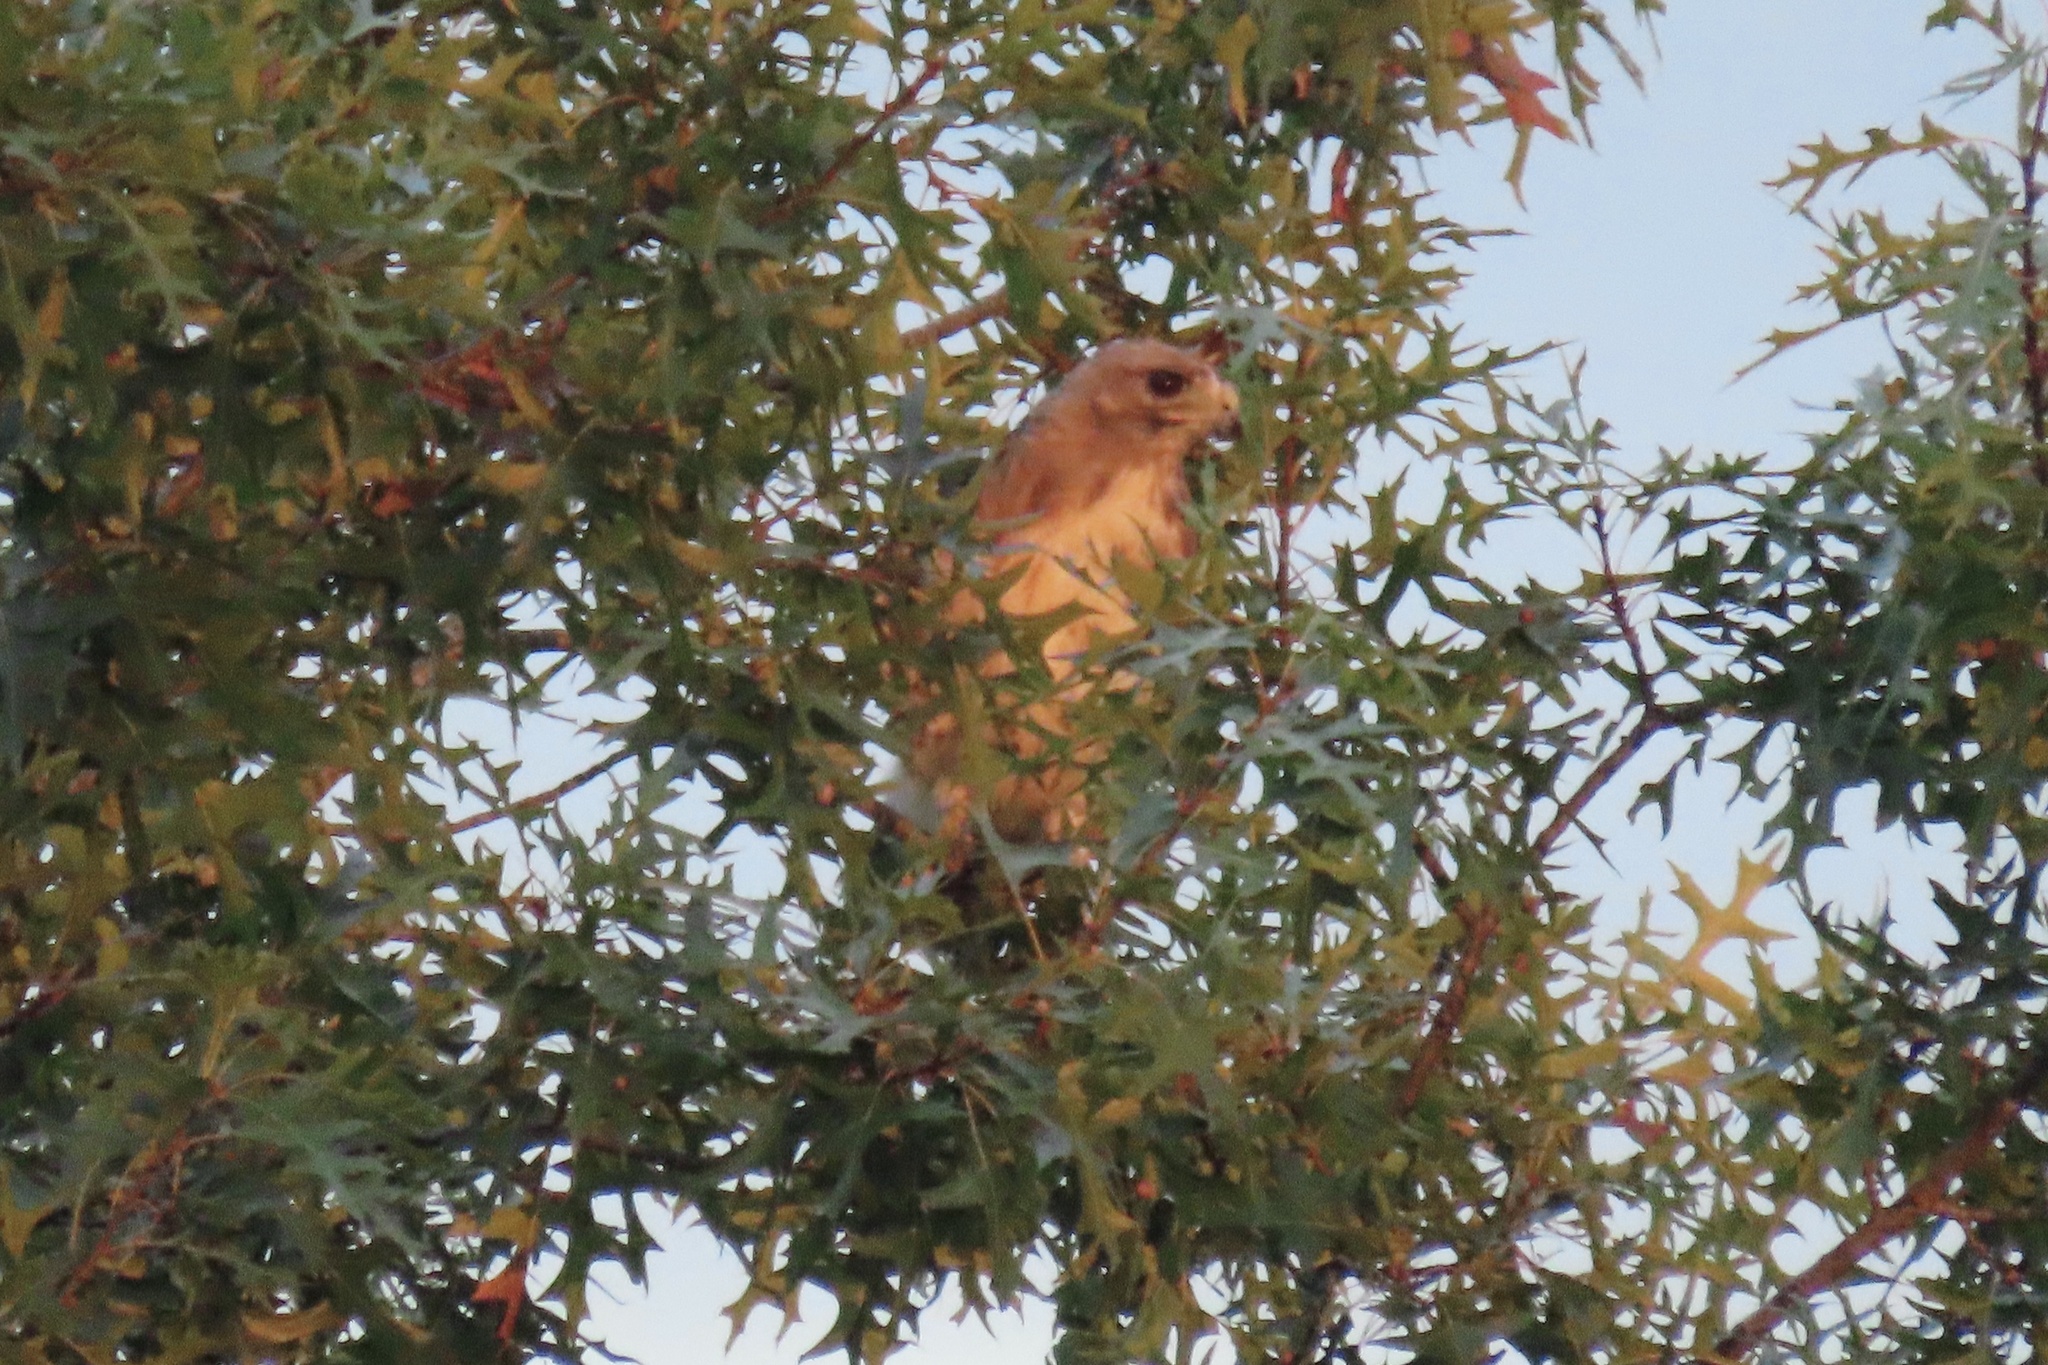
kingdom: Animalia
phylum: Chordata
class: Aves
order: Accipitriformes
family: Accipitridae
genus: Buteo
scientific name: Buteo jamaicensis
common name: Red-tailed hawk
